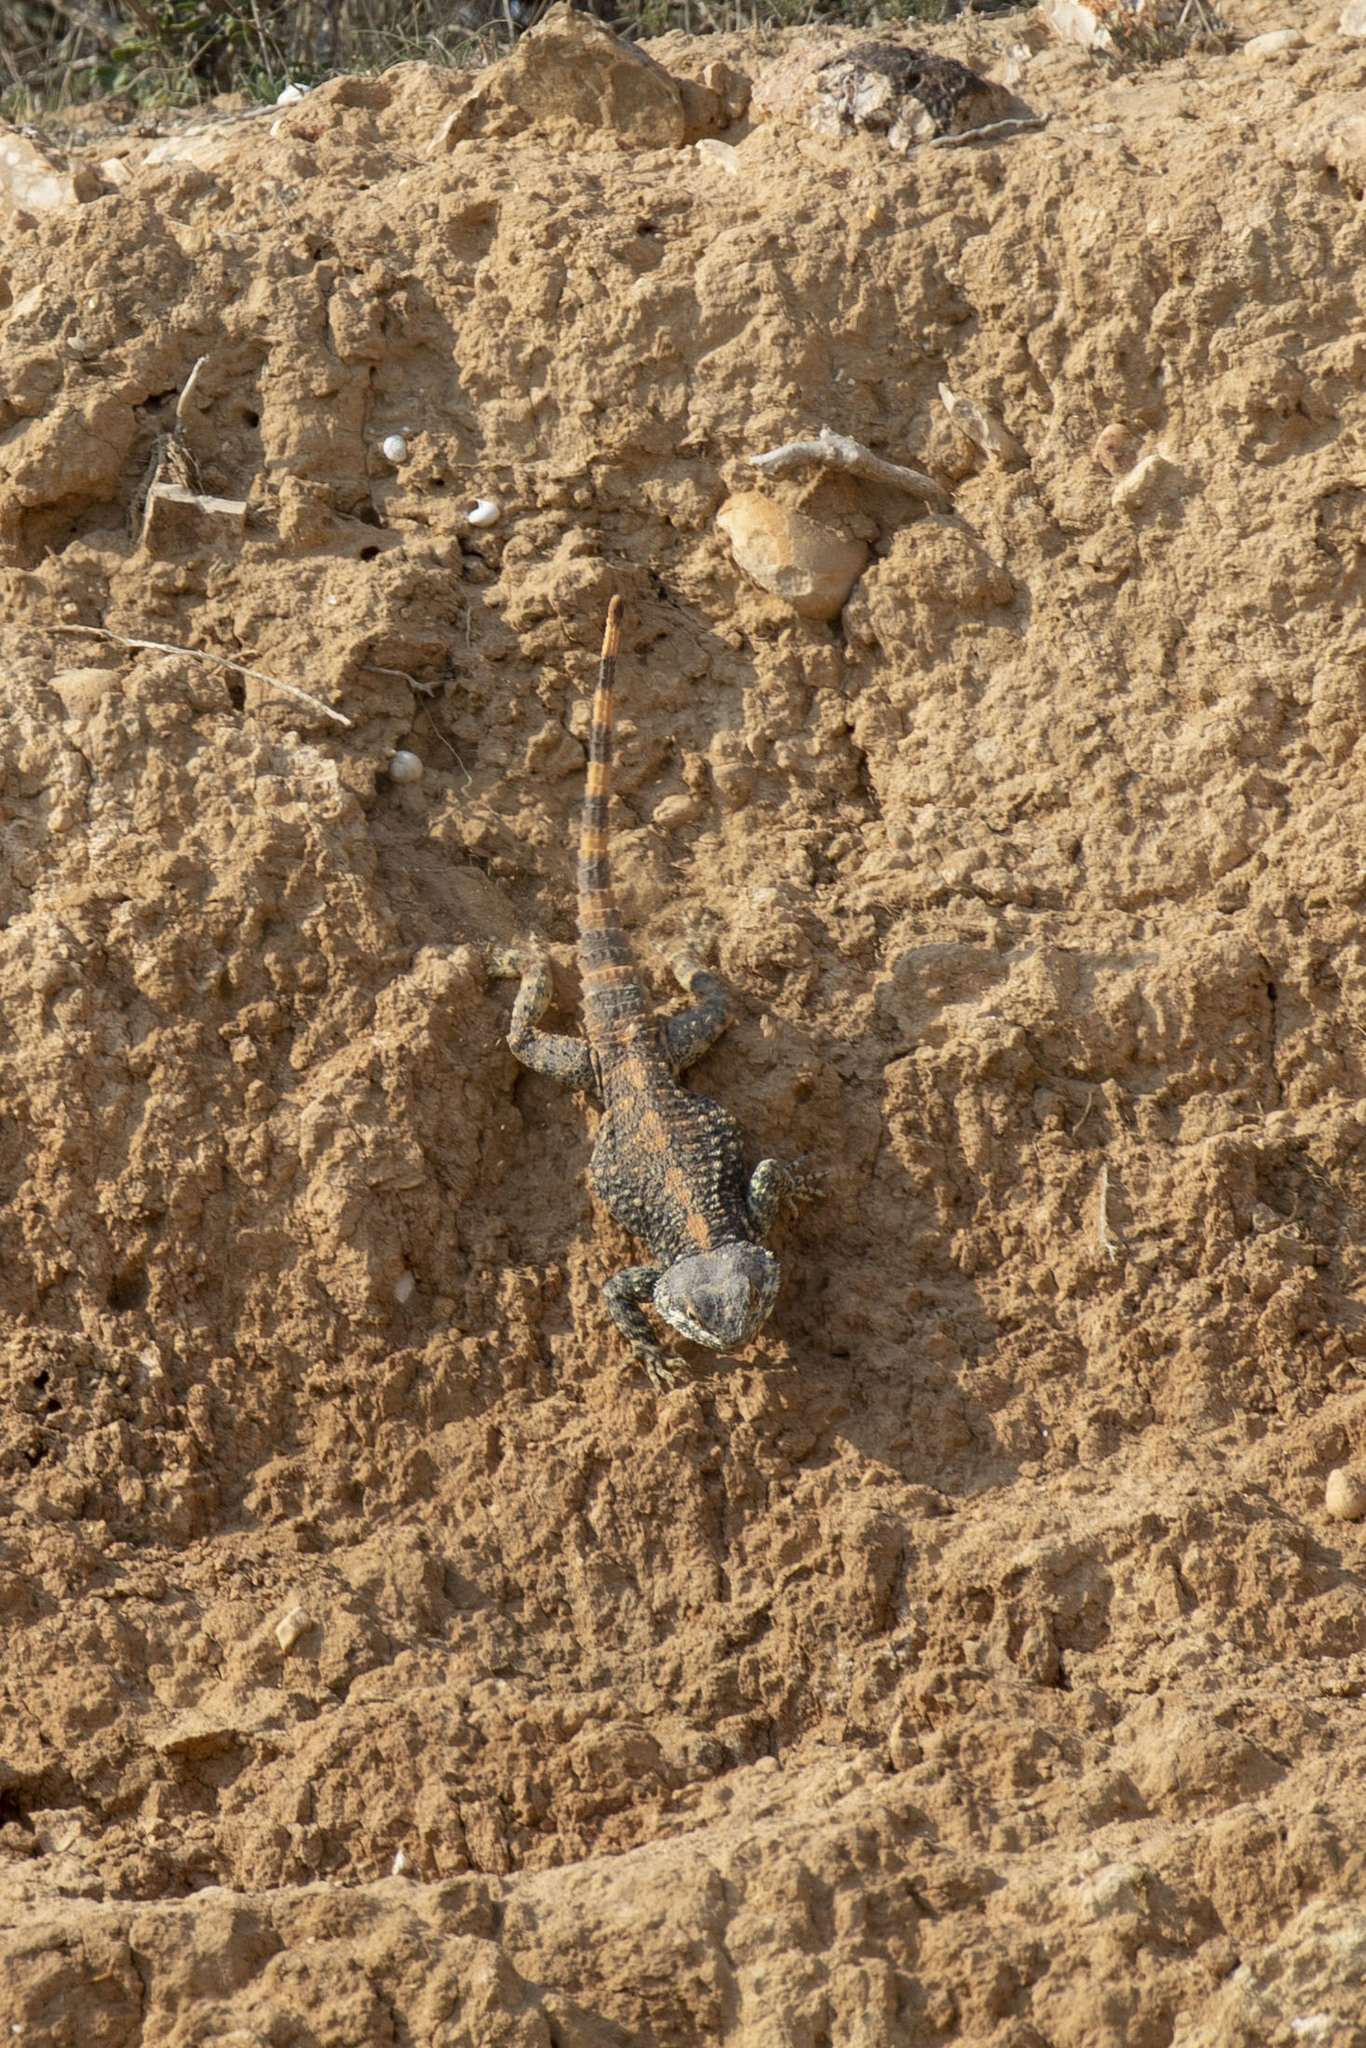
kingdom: Animalia
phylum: Chordata
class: Squamata
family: Agamidae
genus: Laudakia
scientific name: Laudakia vulgaris
